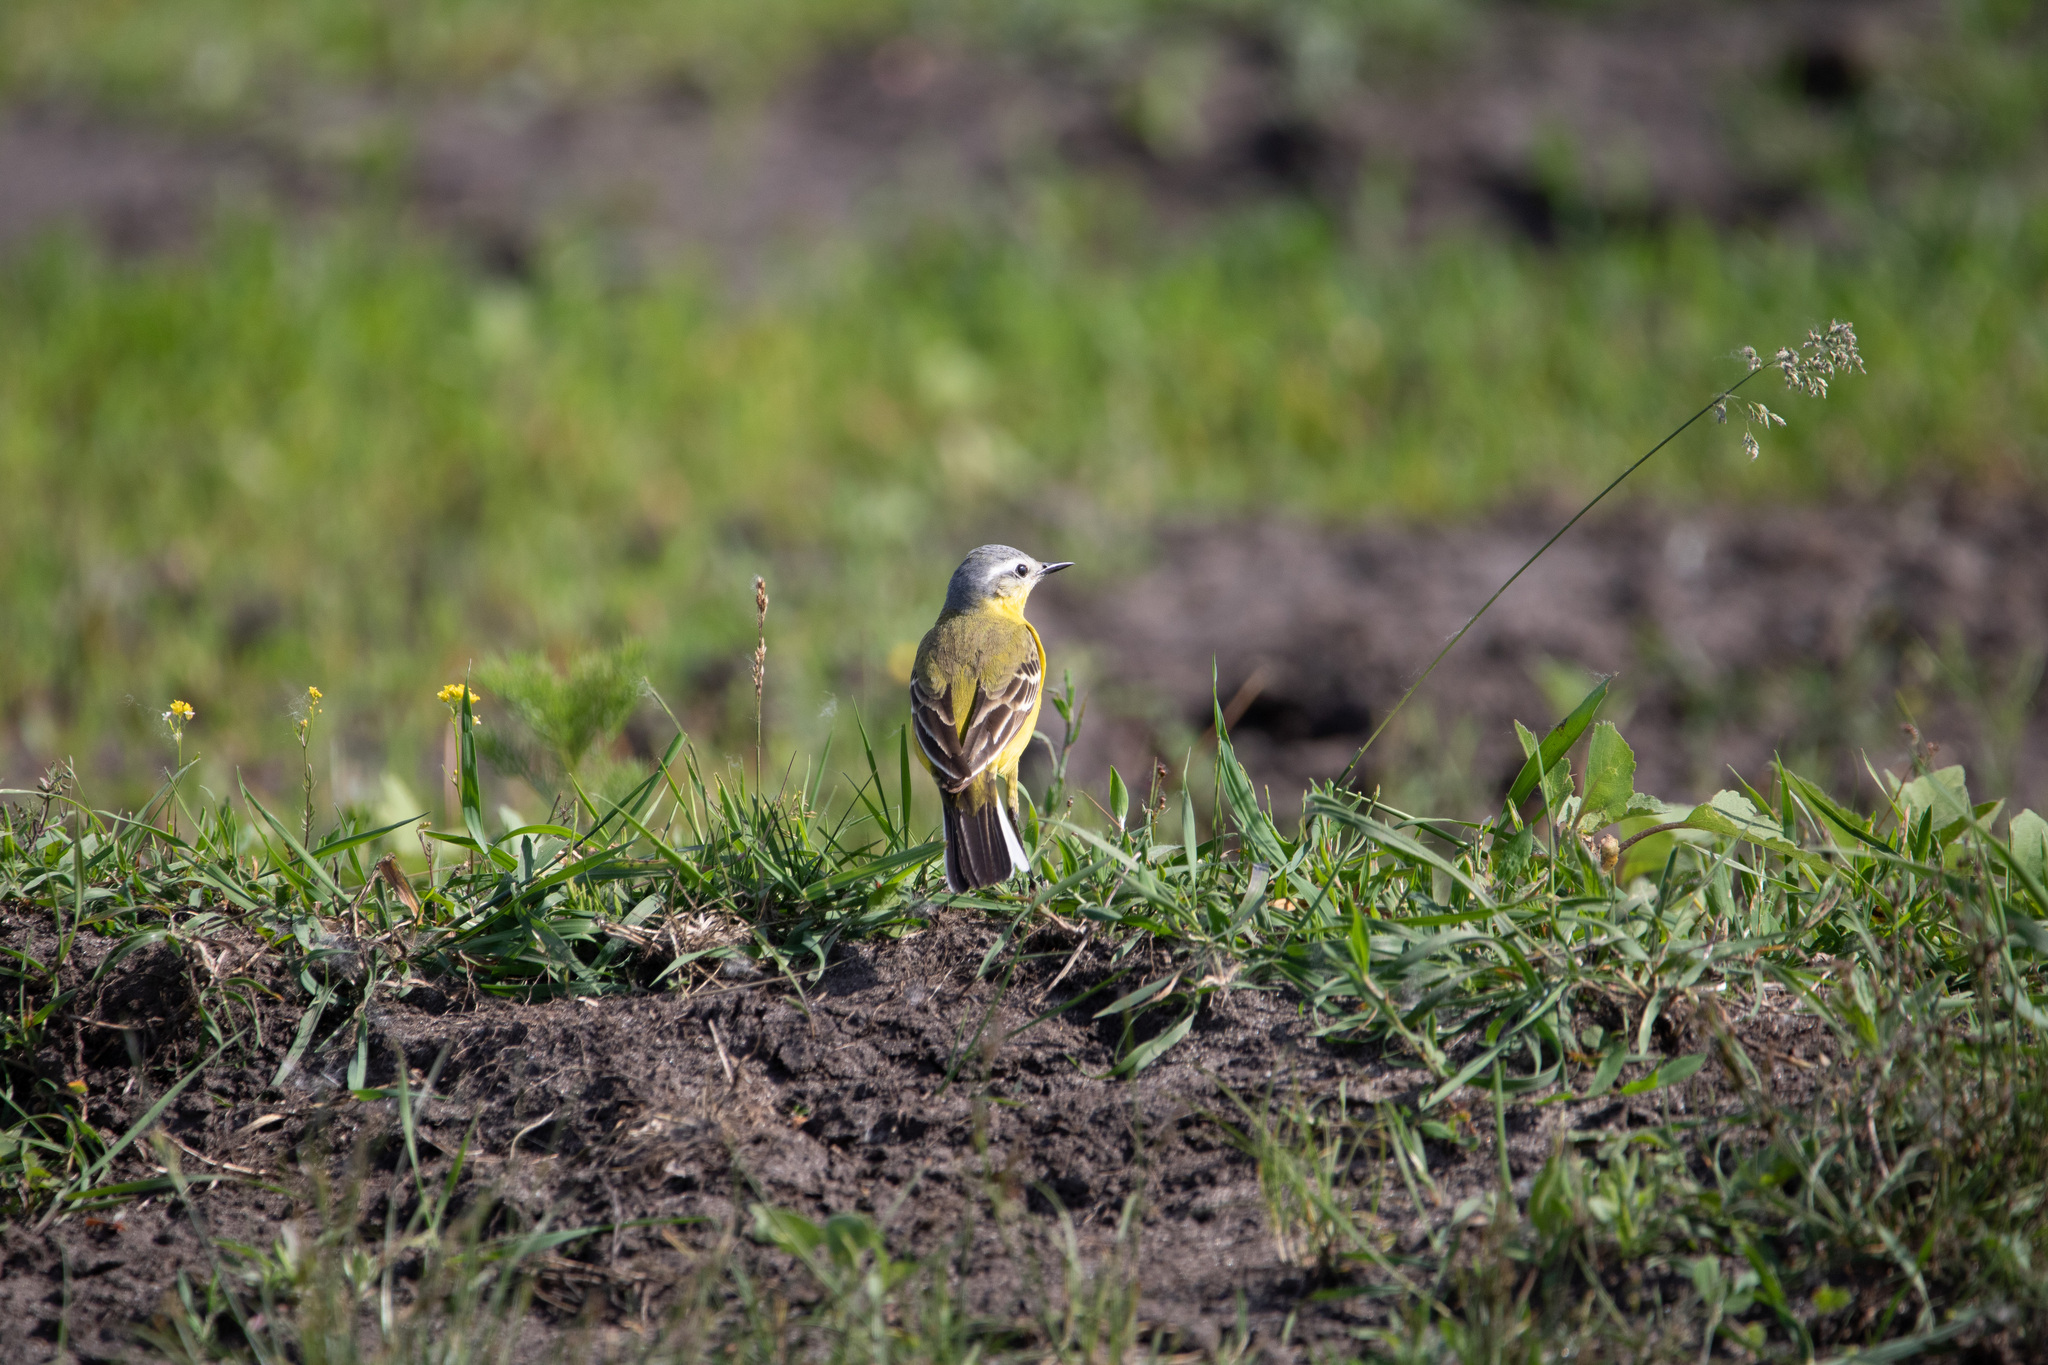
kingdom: Animalia
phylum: Chordata
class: Aves
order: Passeriformes
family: Motacillidae
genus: Motacilla
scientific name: Motacilla flava
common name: Western yellow wagtail
